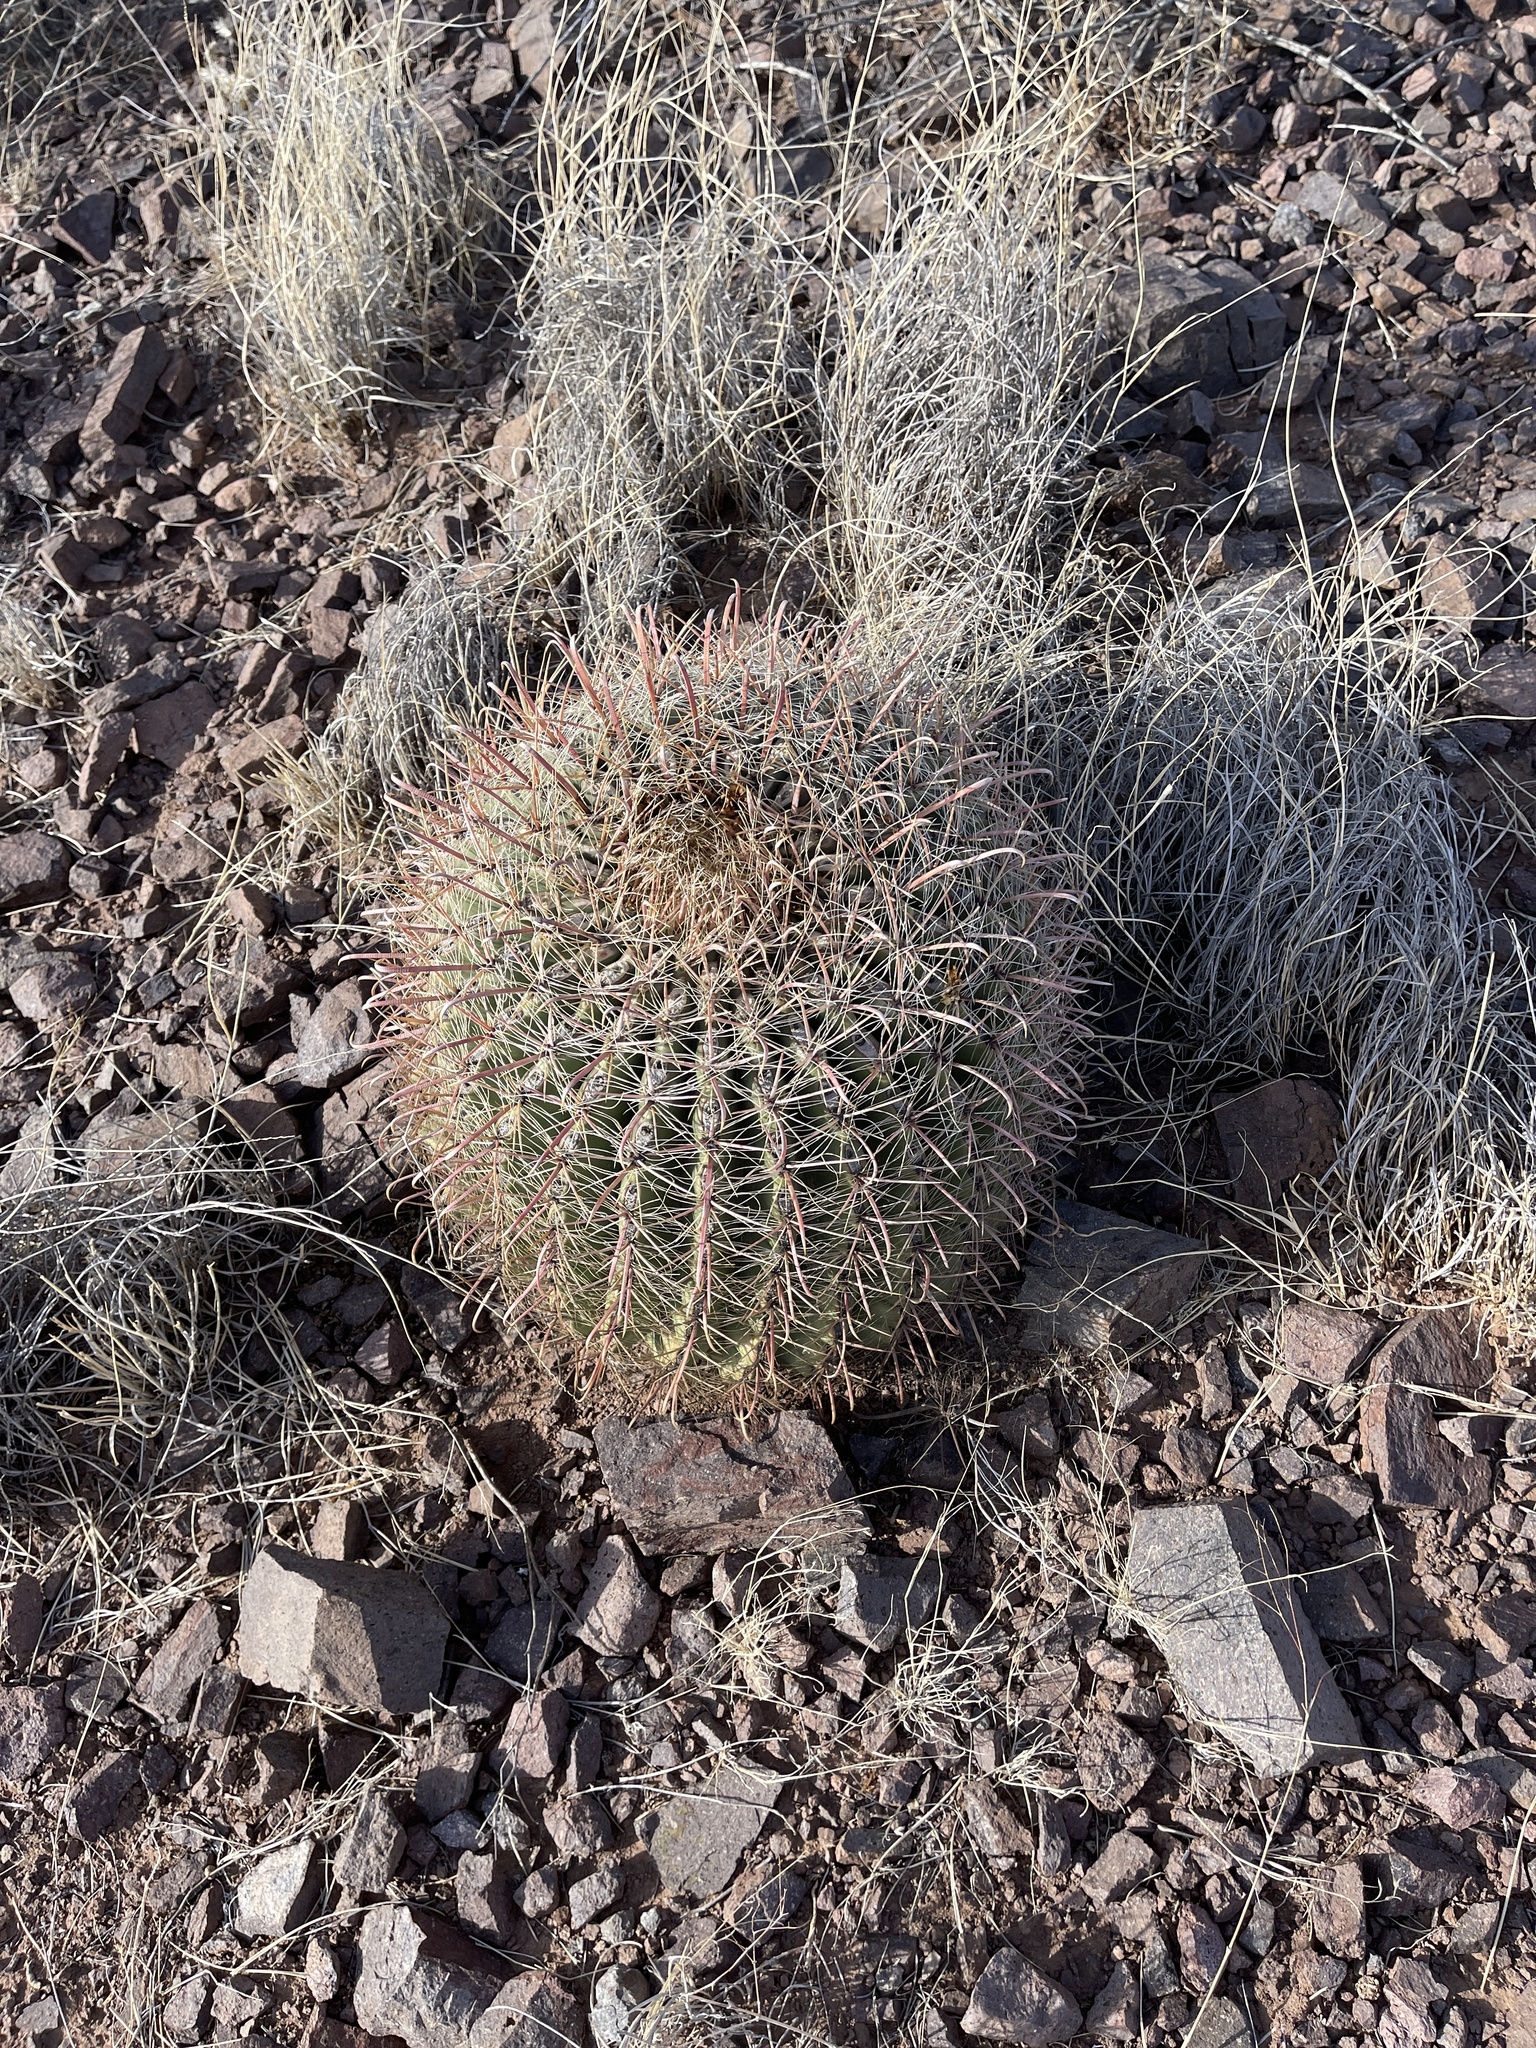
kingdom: Plantae
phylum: Tracheophyta
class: Magnoliopsida
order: Caryophyllales
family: Cactaceae
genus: Ferocactus
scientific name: Ferocactus wislizeni
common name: Candy barrel cactus
